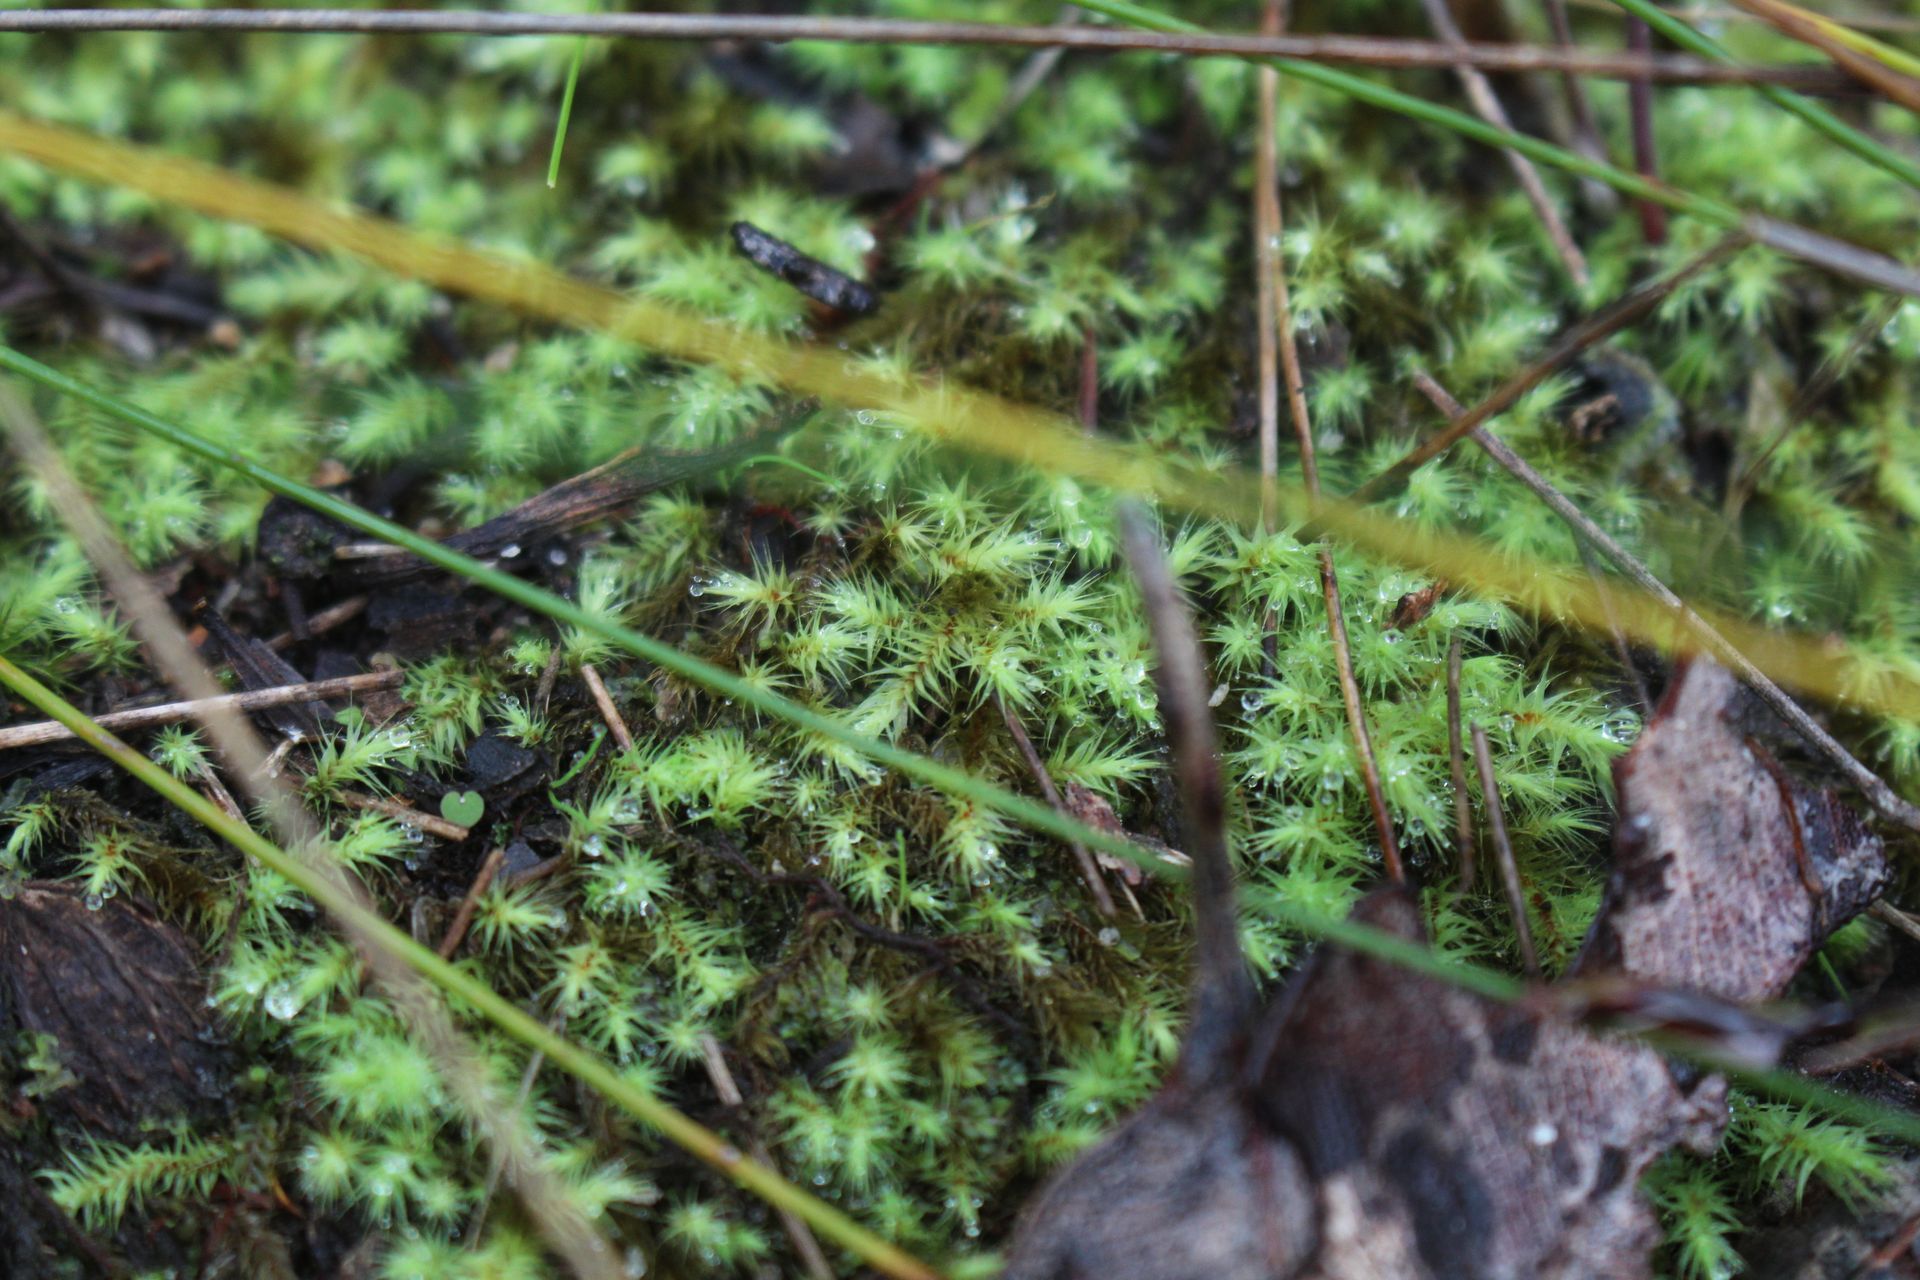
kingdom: Plantae
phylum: Bryophyta
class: Bryopsida
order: Bartramiales
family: Bartramiaceae
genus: Breutelia
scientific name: Breutelia affinis
